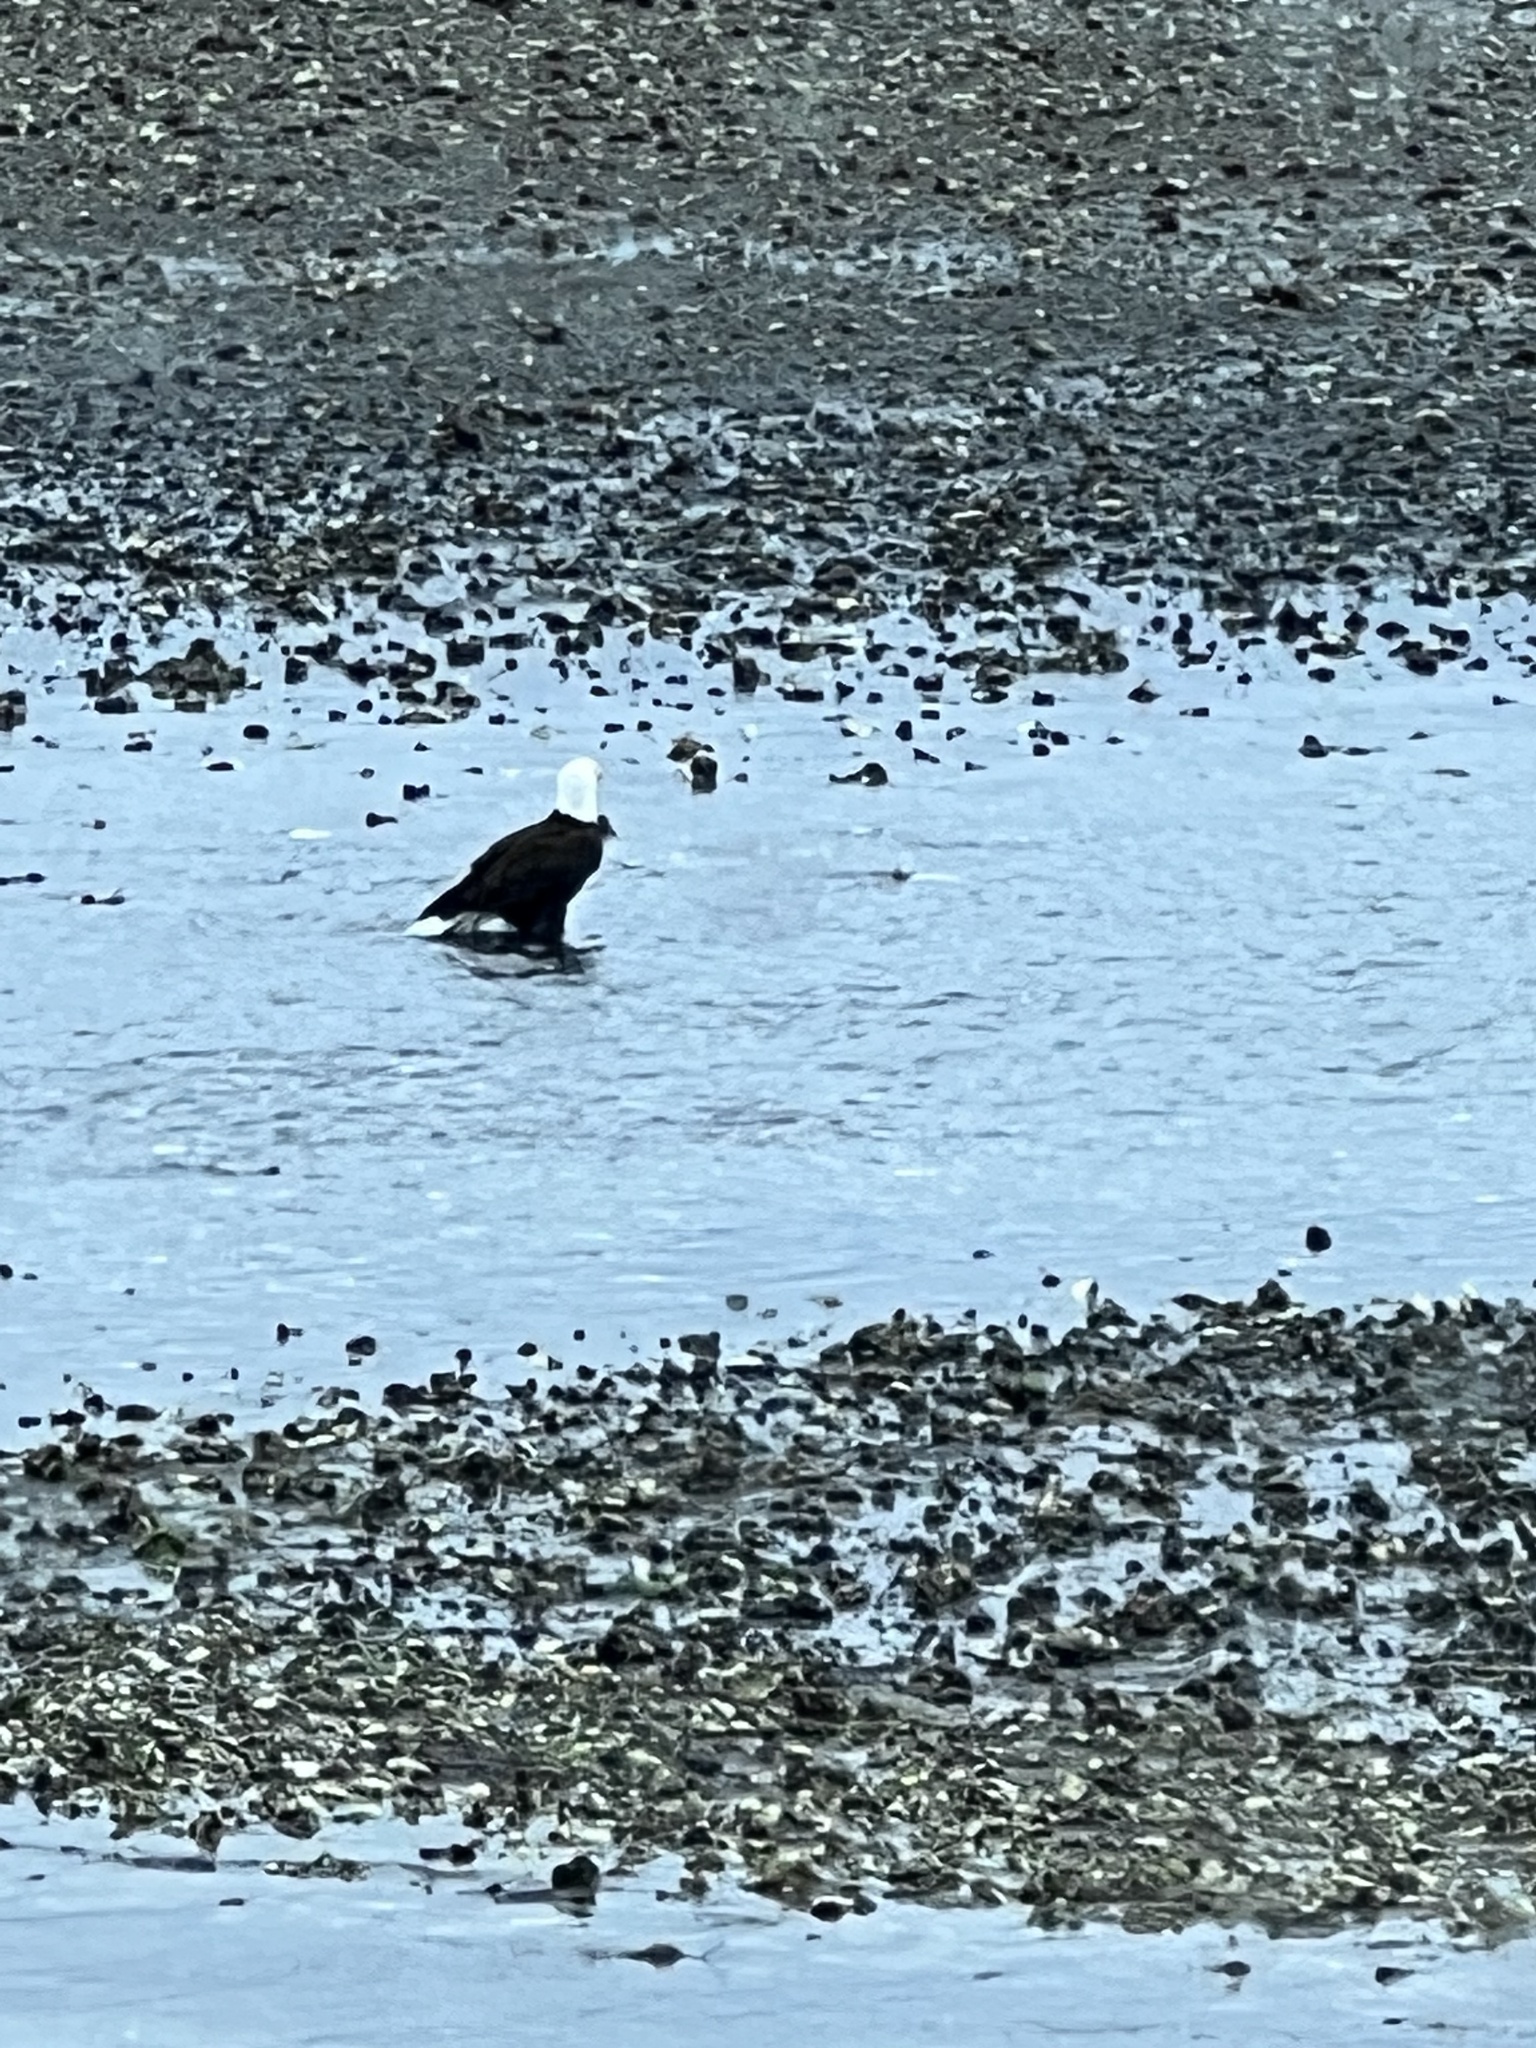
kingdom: Animalia
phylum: Chordata
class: Aves
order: Accipitriformes
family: Accipitridae
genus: Haliaeetus
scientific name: Haliaeetus leucocephalus
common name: Bald eagle
